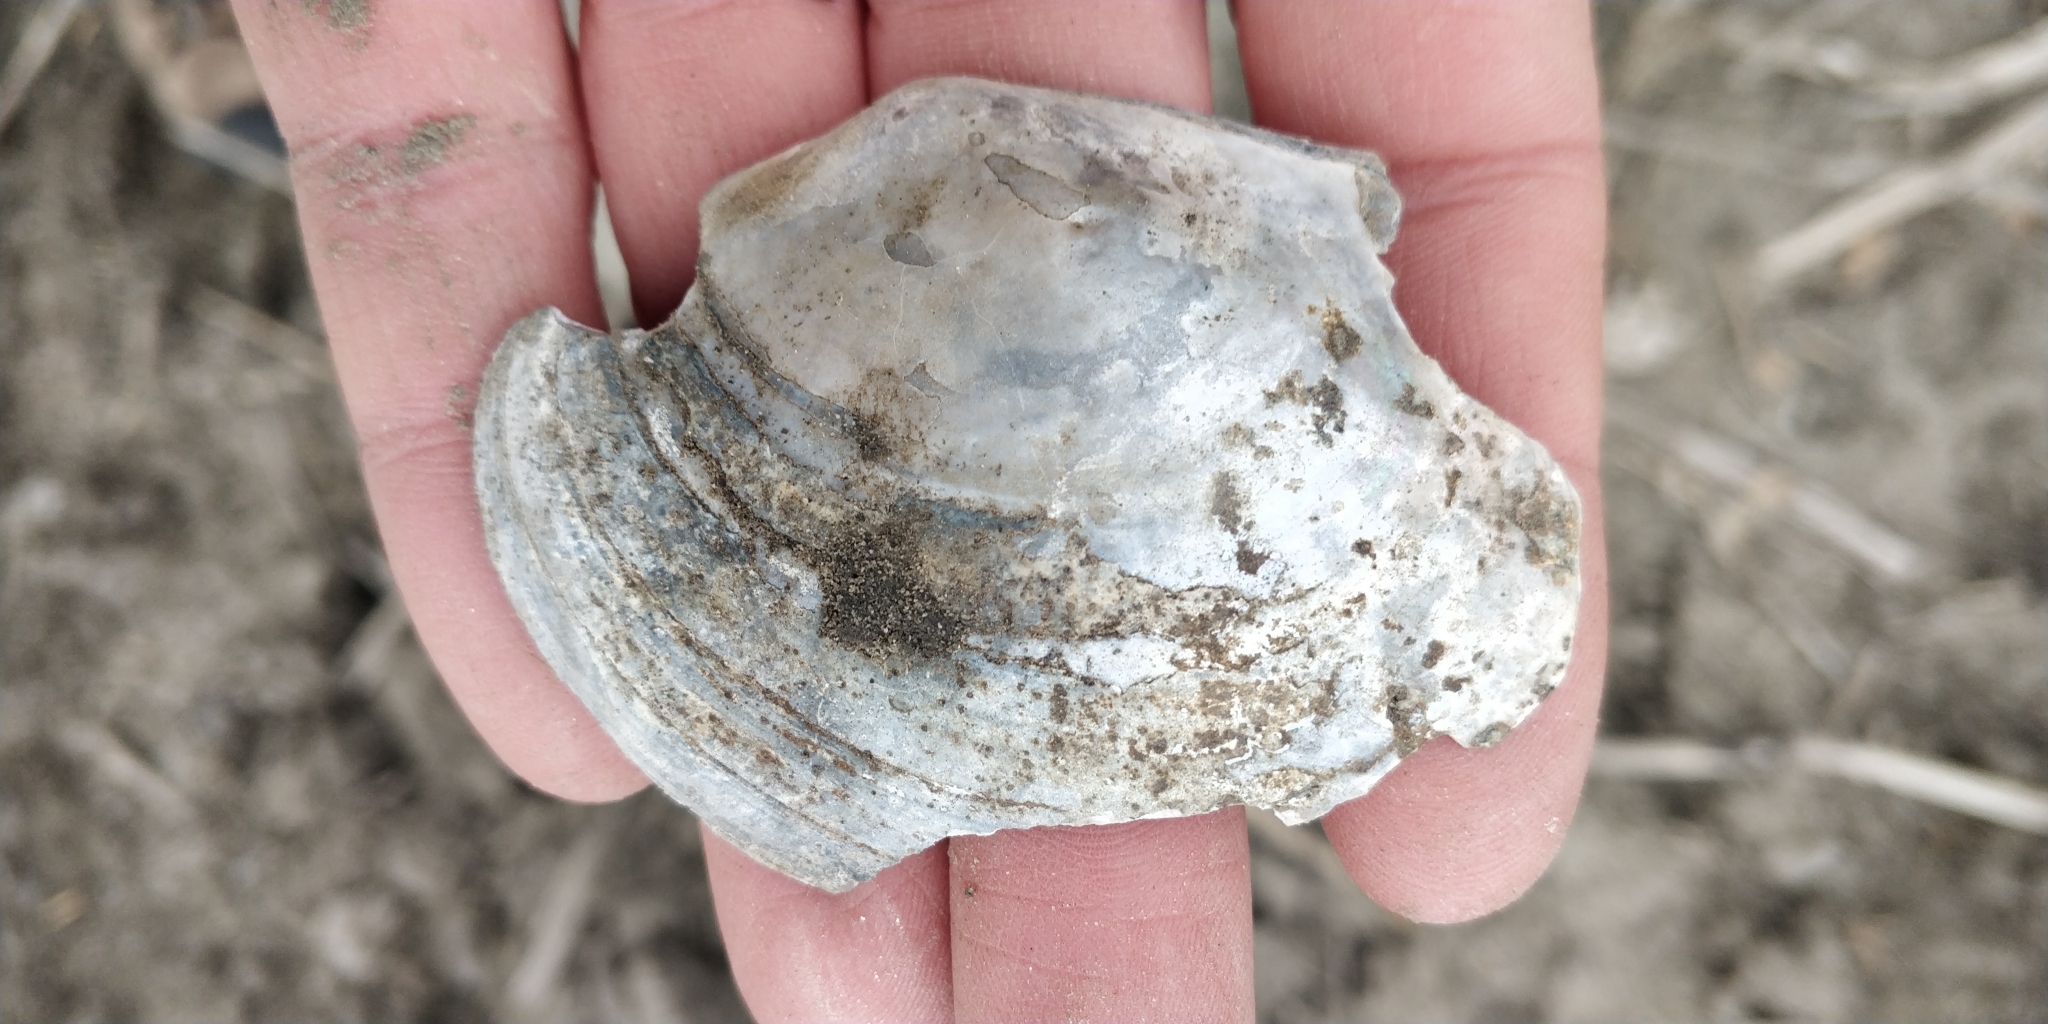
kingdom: Animalia
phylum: Mollusca
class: Bivalvia
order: Unionida
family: Unionidae
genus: Lasmigona
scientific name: Lasmigona complanata
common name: White heelsplitter
